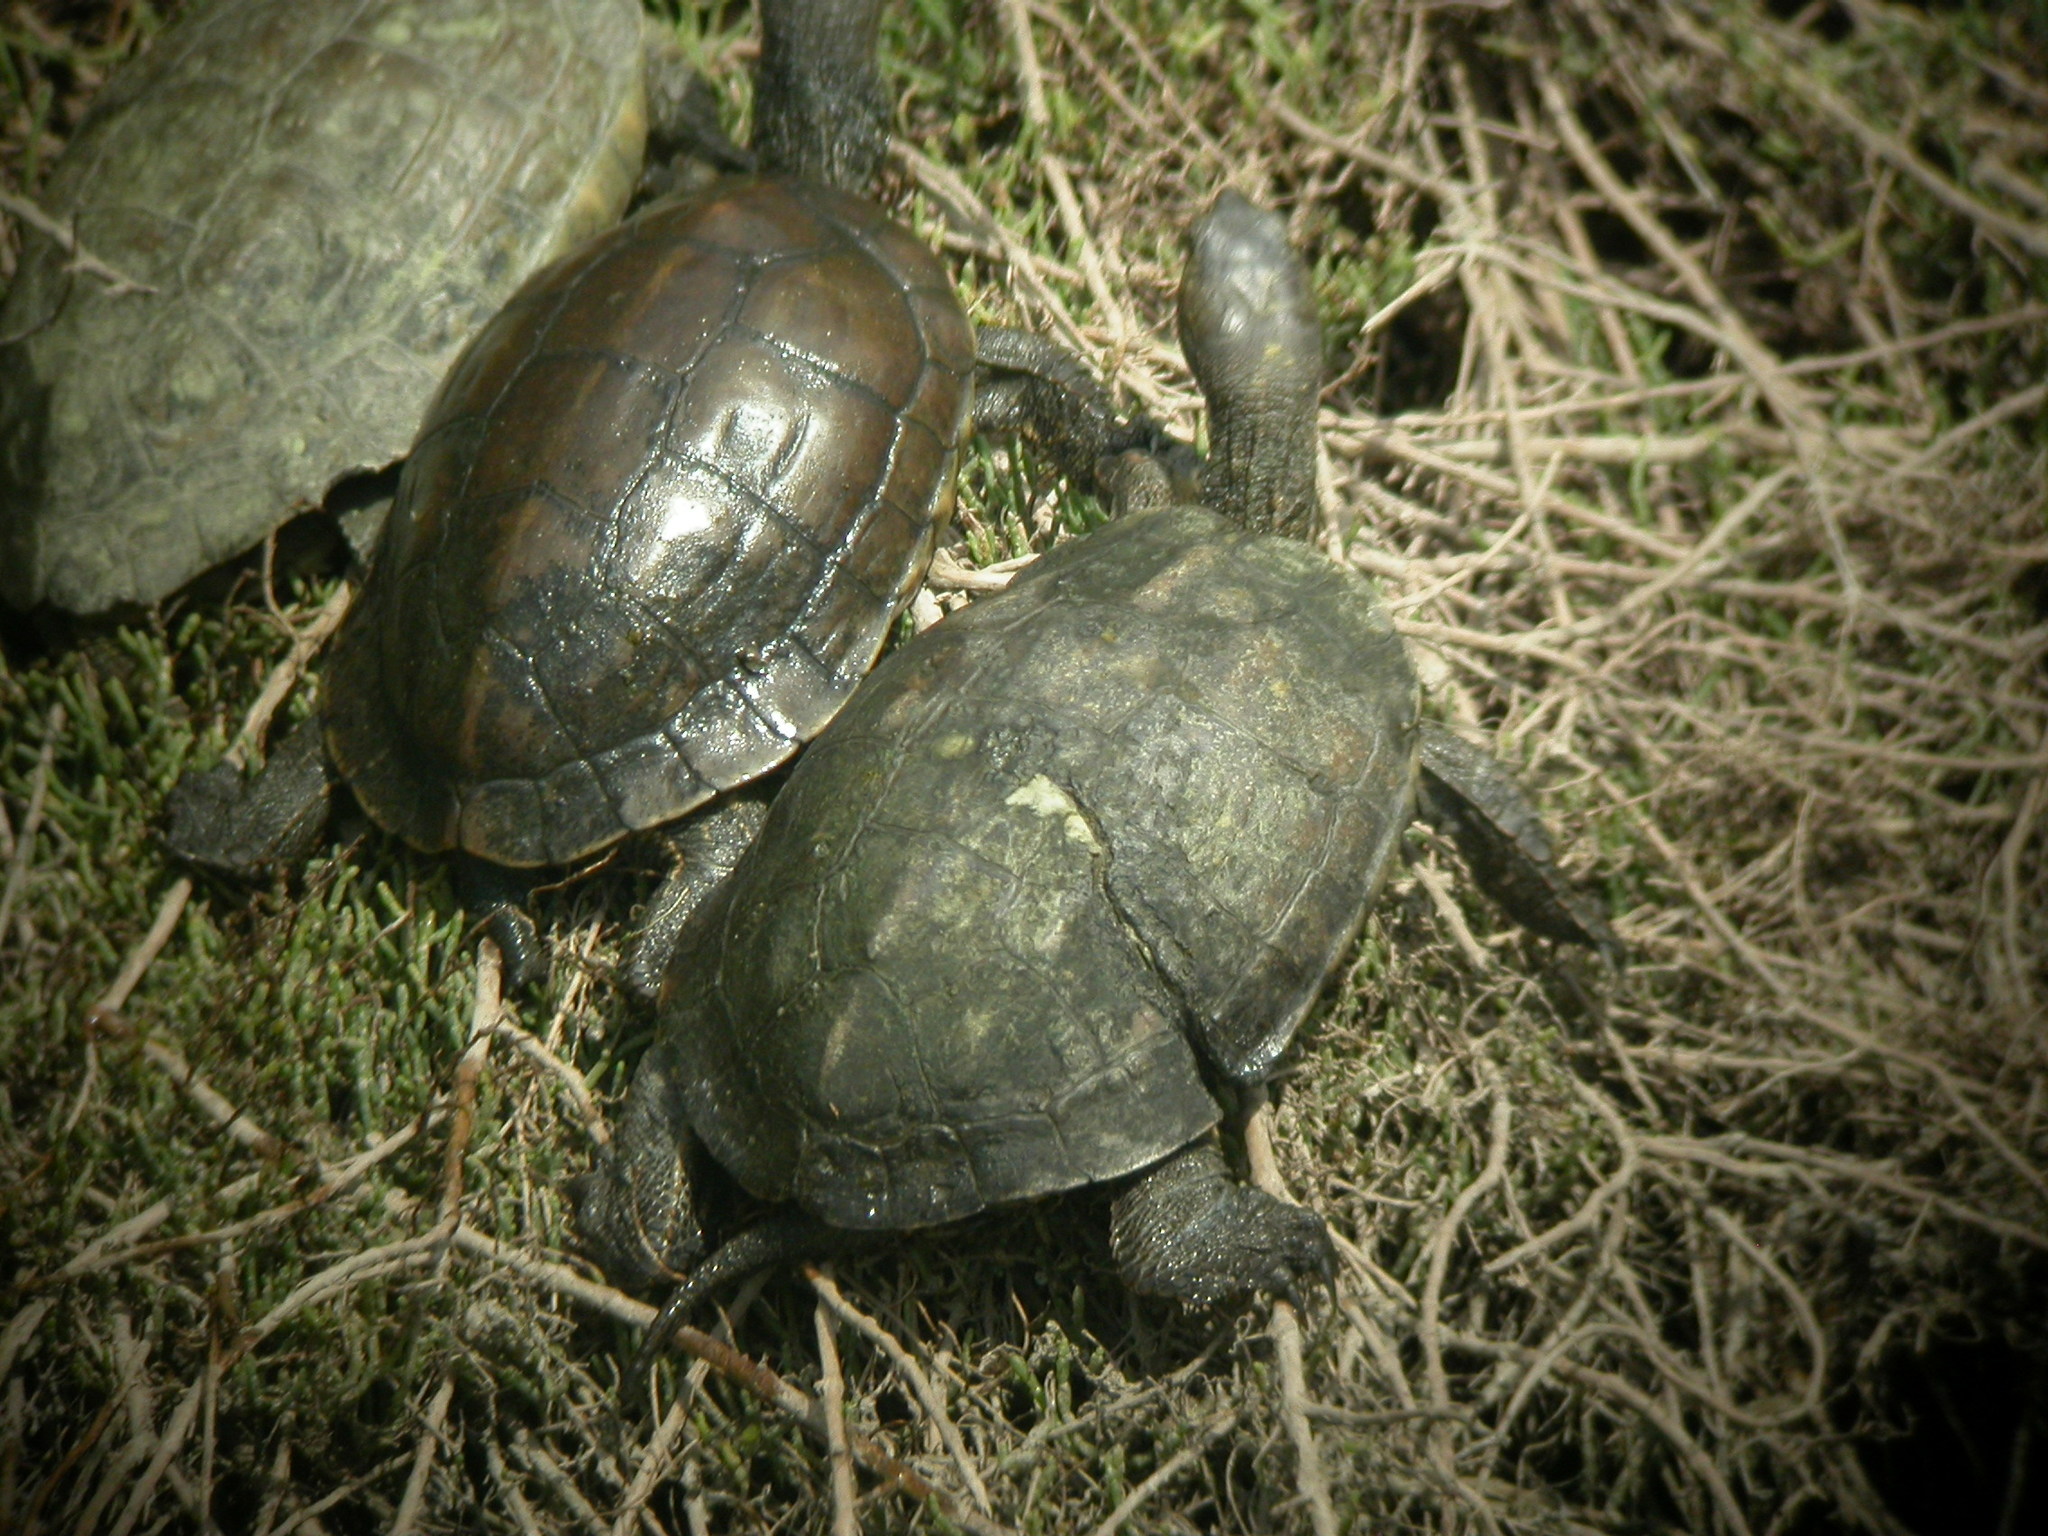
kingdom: Animalia
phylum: Chordata
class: Testudines
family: Geoemydidae
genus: Mauremys
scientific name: Mauremys leprosa
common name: Mediterranean pond turtle
